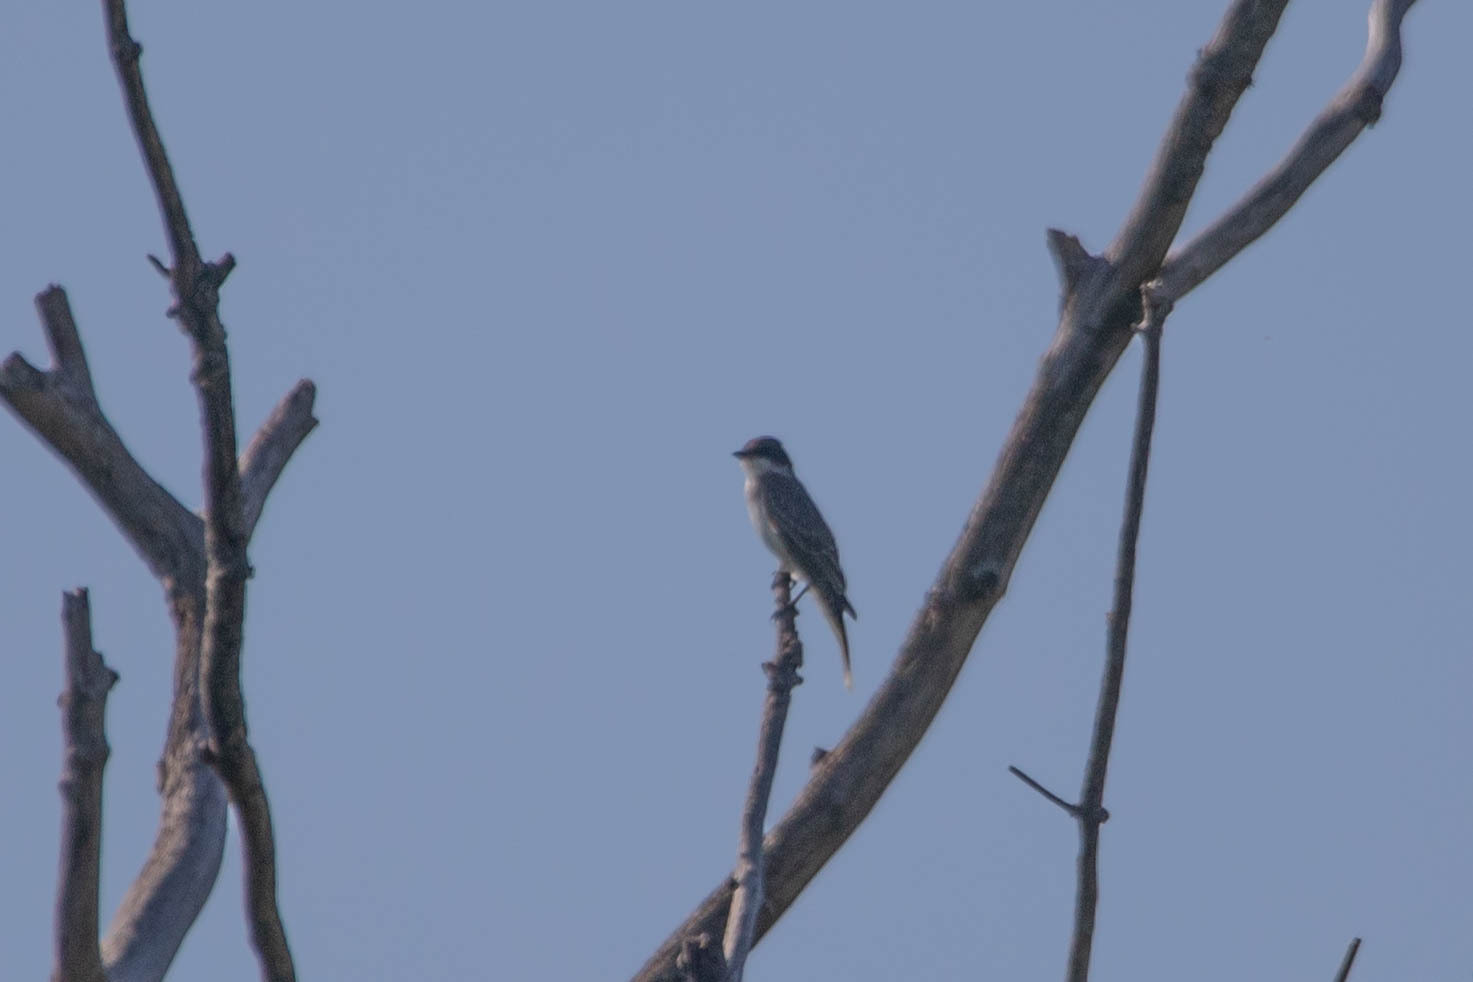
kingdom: Animalia
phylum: Chordata
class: Aves
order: Passeriformes
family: Tyrannidae
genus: Tyrannus
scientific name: Tyrannus tyrannus
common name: Eastern kingbird
